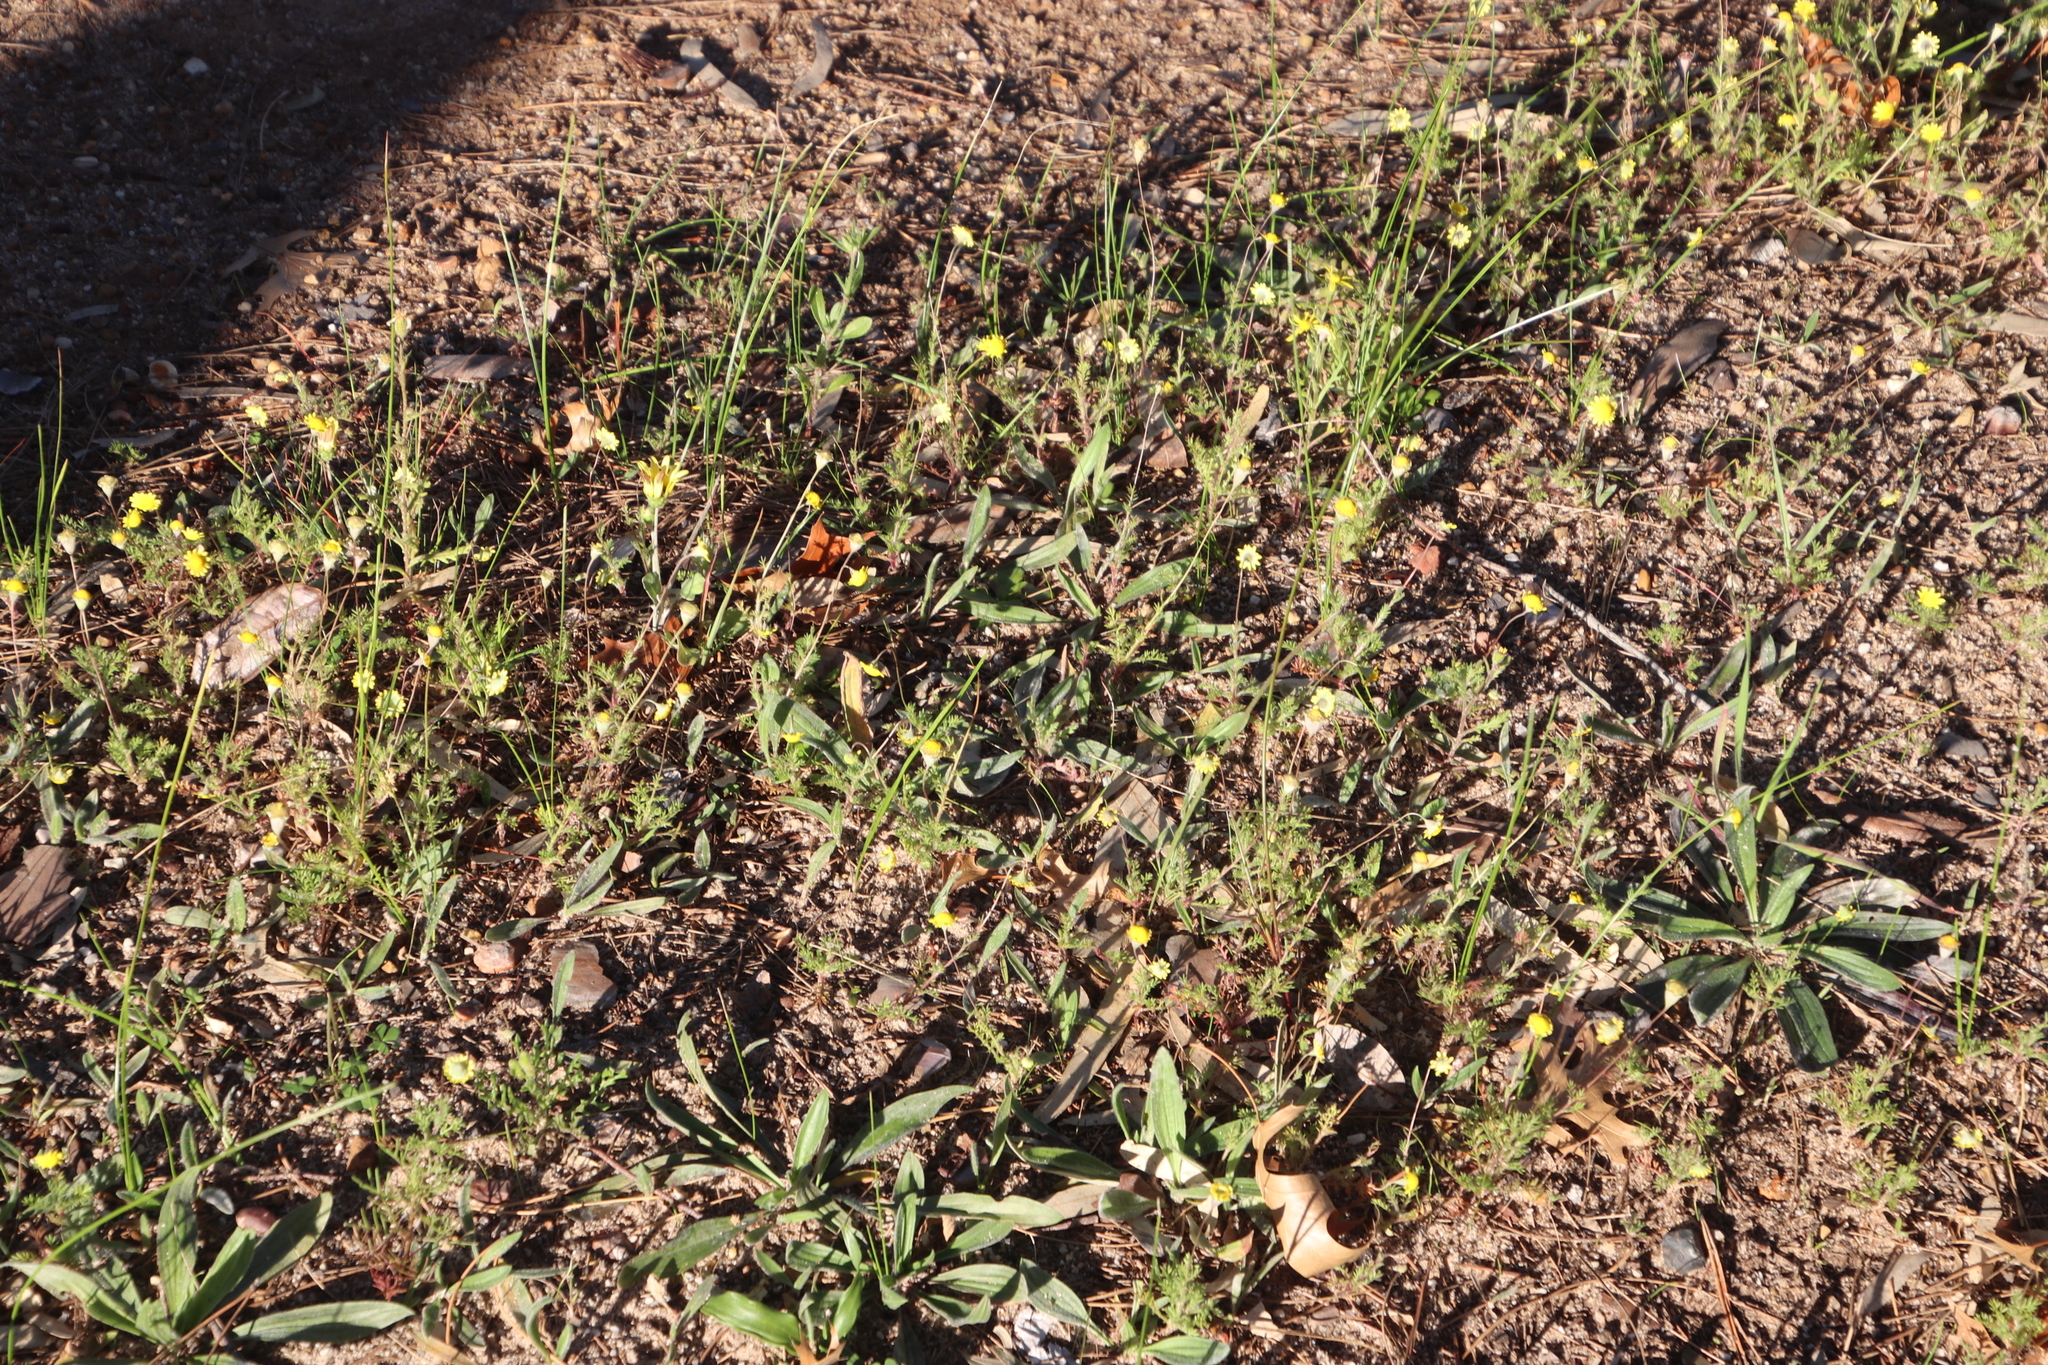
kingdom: Plantae
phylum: Tracheophyta
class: Magnoliopsida
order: Asterales
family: Asteraceae
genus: Cotula
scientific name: Cotula pruinosa
